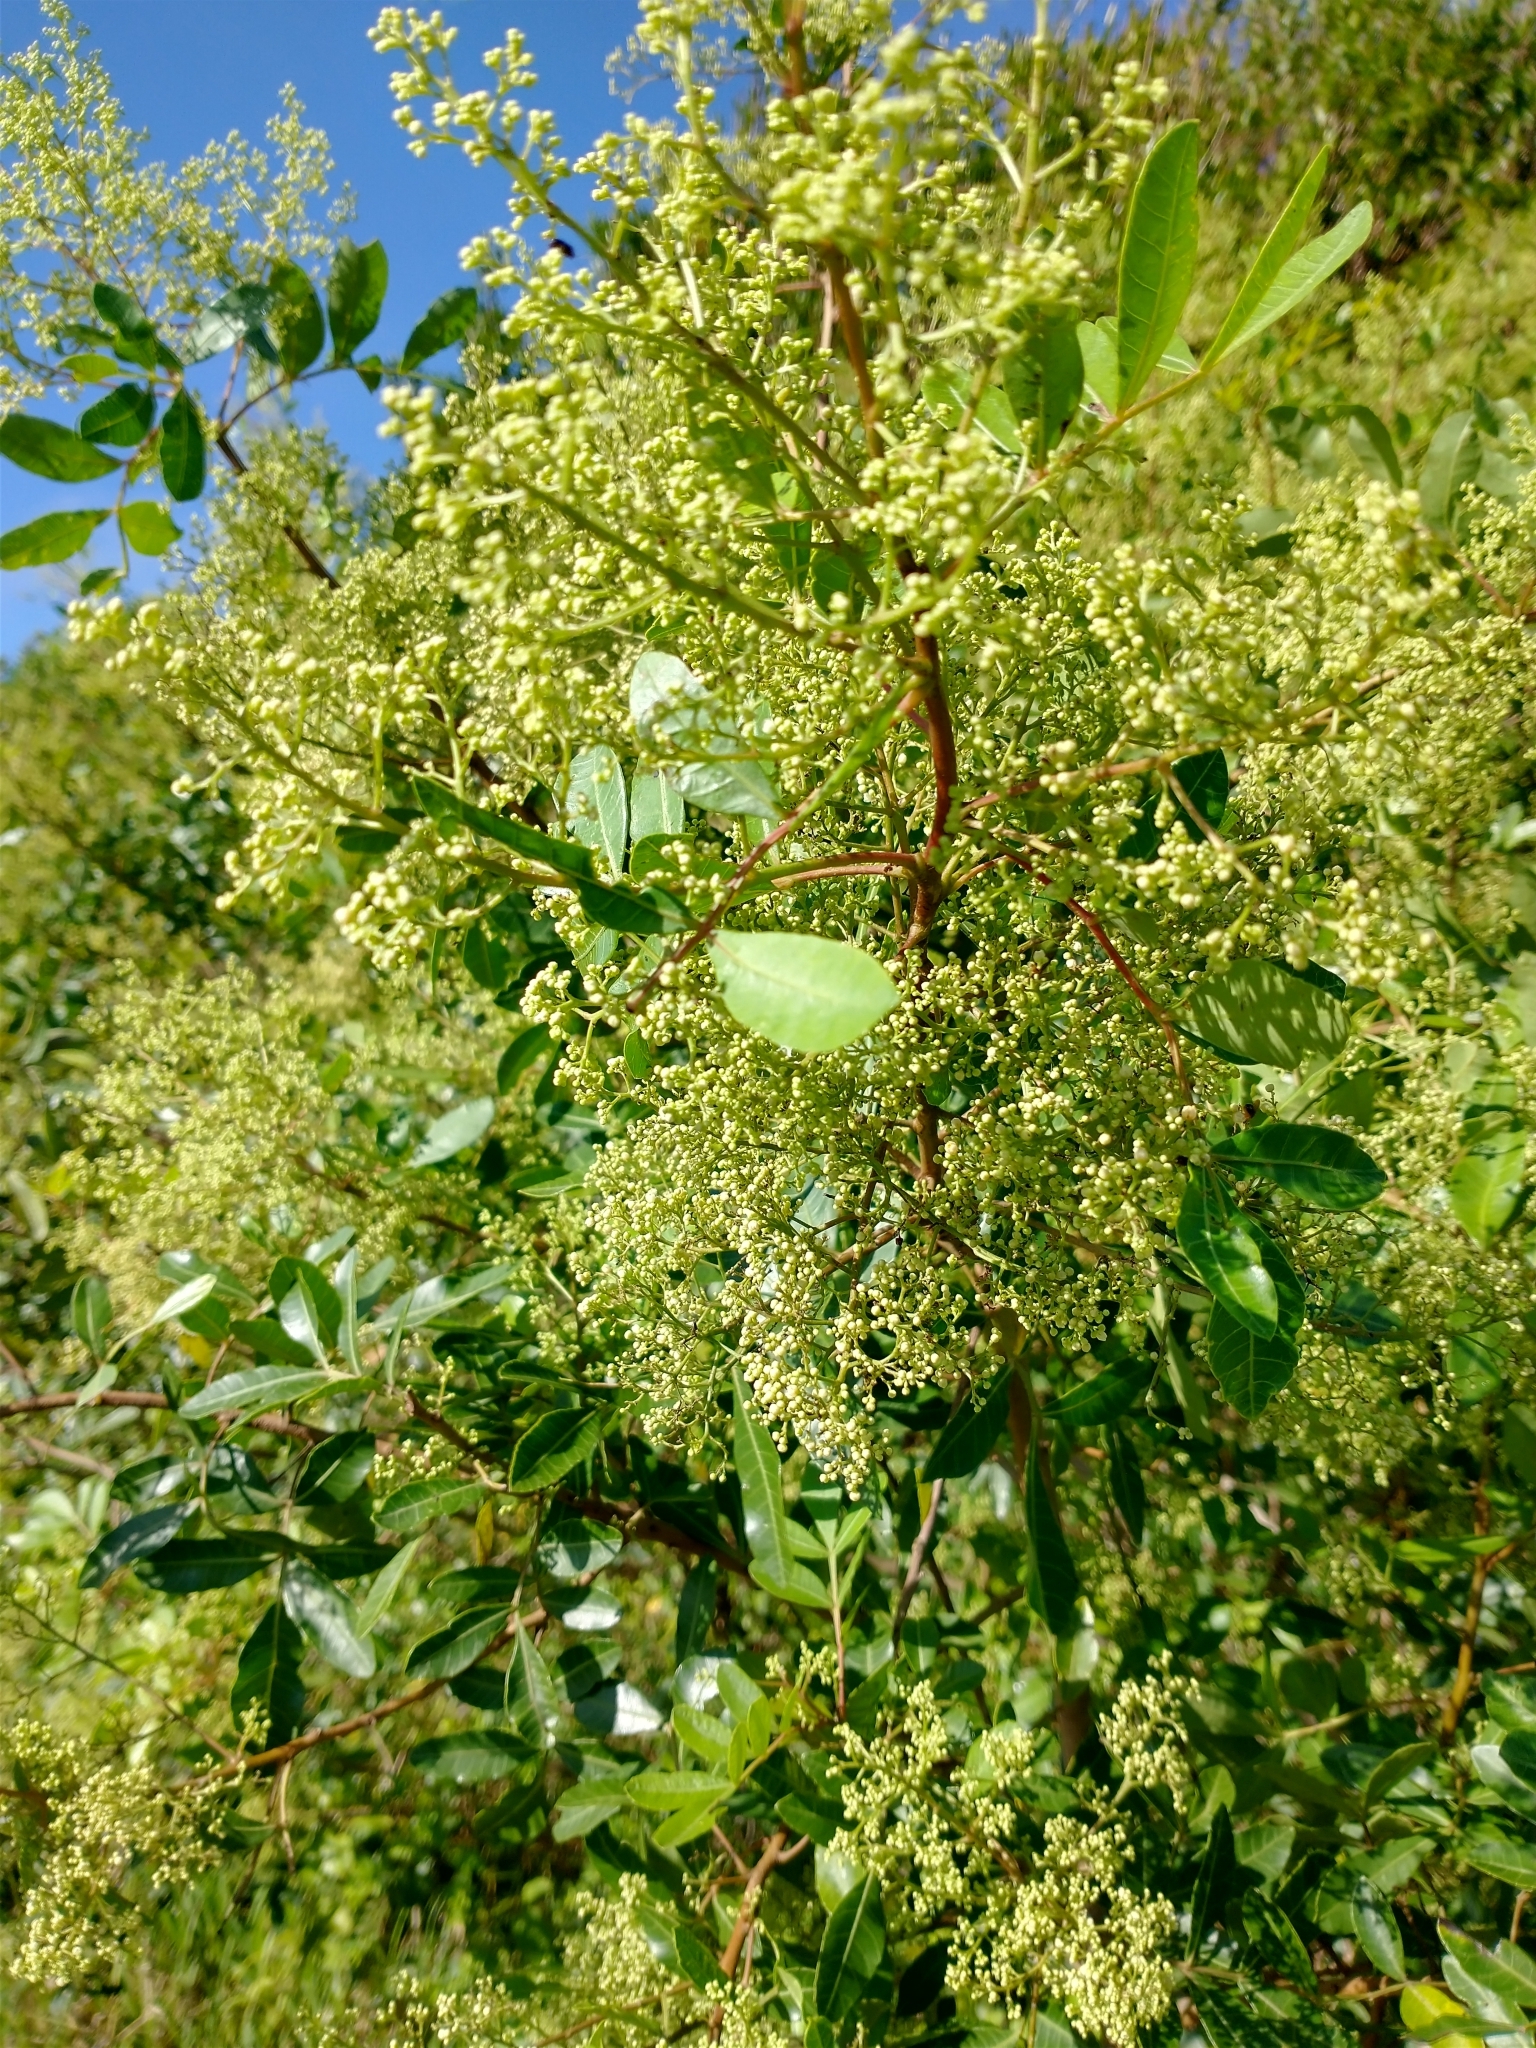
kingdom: Plantae
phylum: Tracheophyta
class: Magnoliopsida
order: Sapindales
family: Anacardiaceae
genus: Schinus
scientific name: Schinus terebinthifolia
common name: Brazilian peppertree
